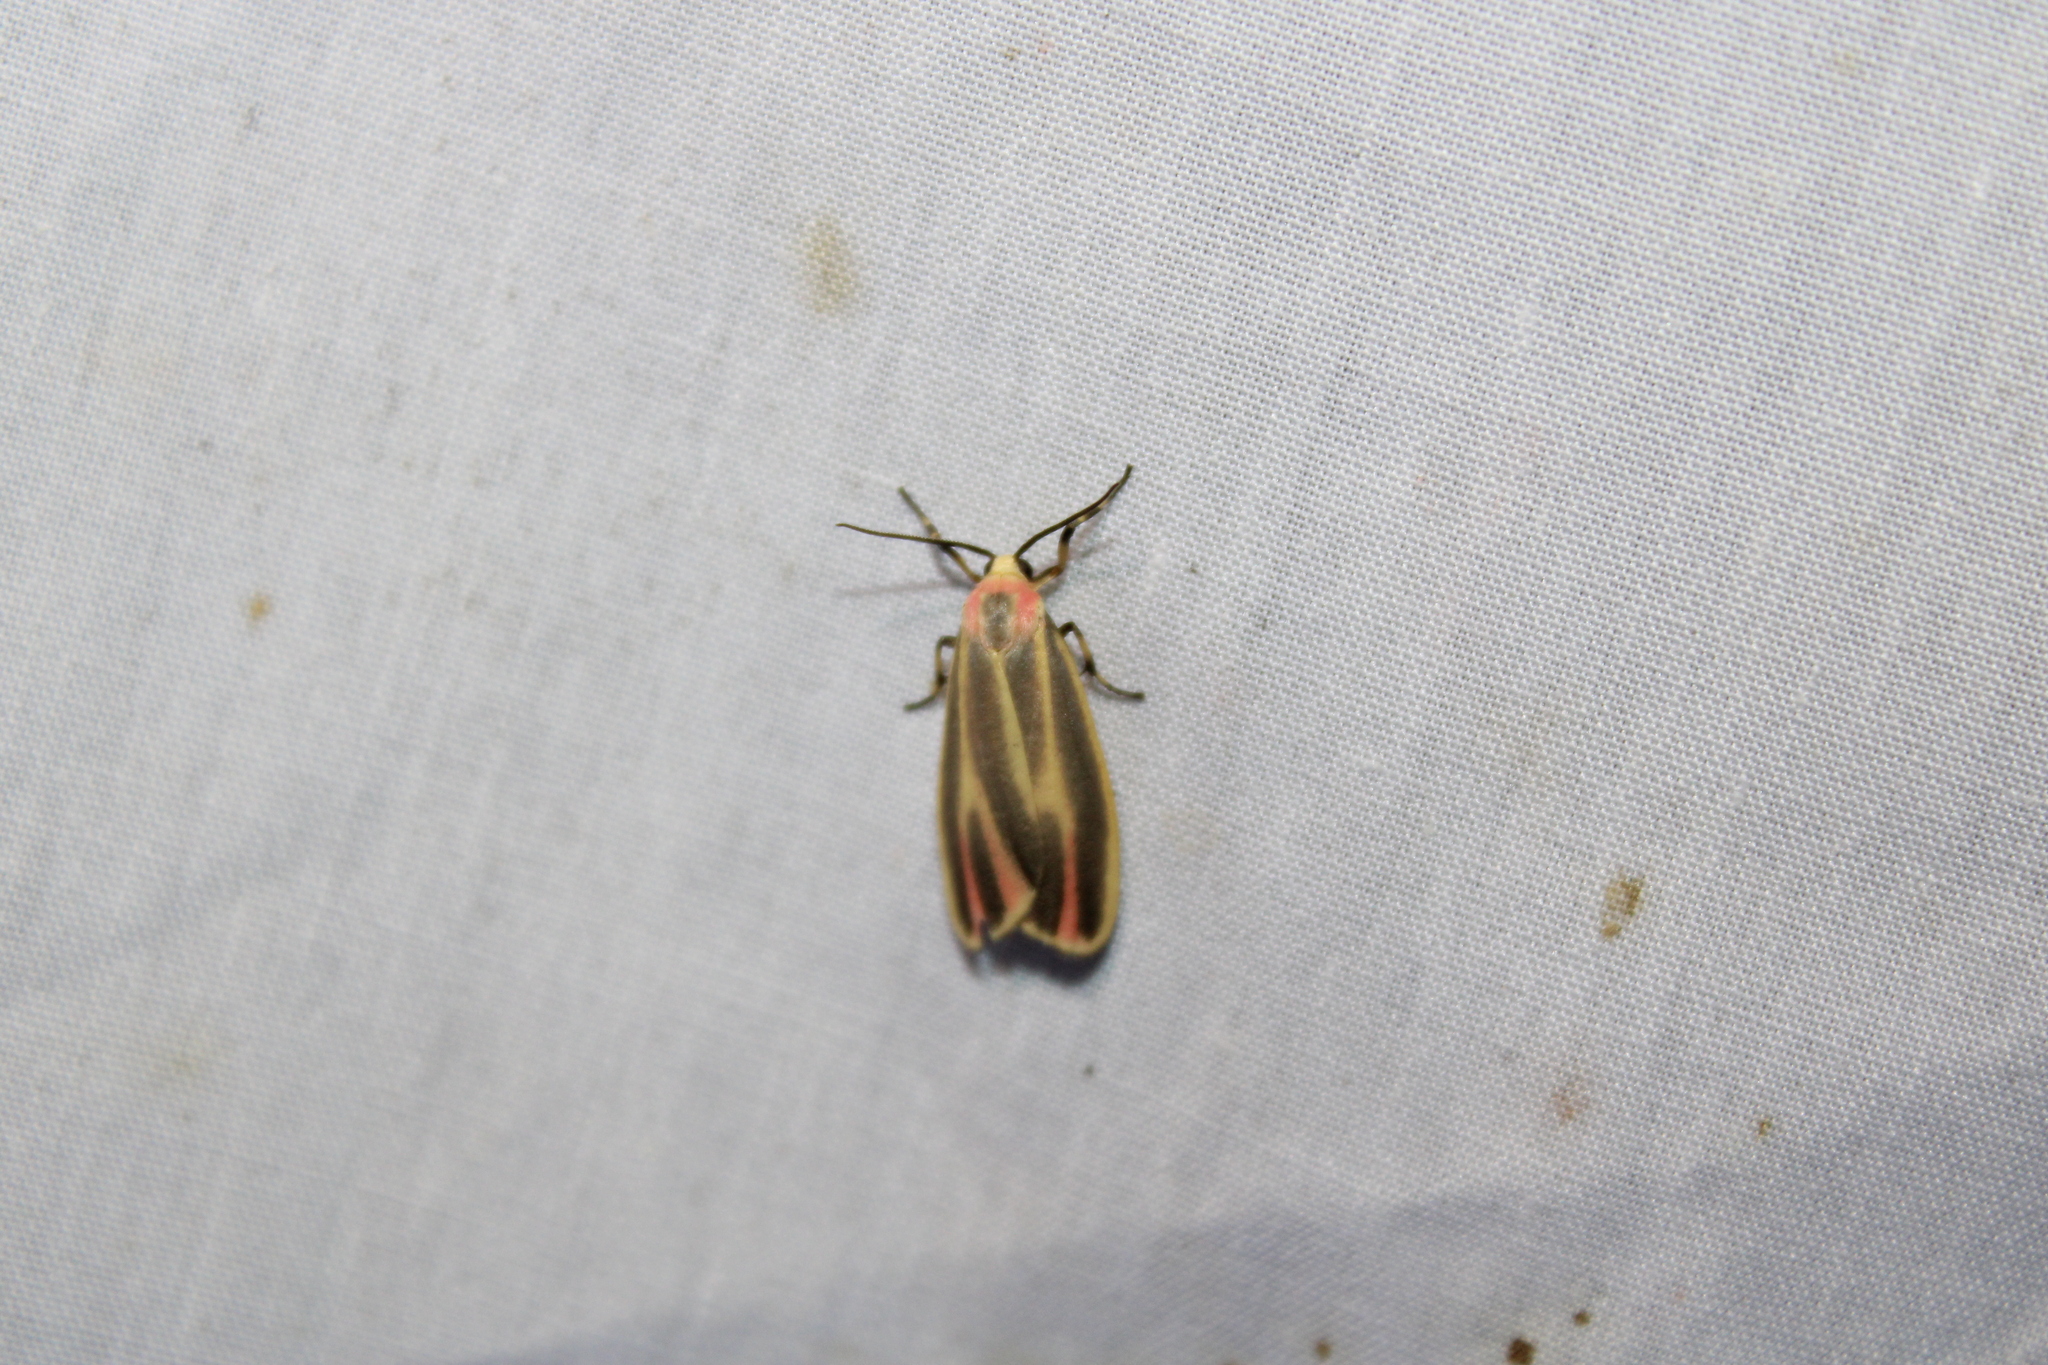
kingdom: Animalia
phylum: Arthropoda
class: Insecta
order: Lepidoptera
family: Erebidae
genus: Hypoprepia
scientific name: Hypoprepia fucosa
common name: Painted lichen moth
